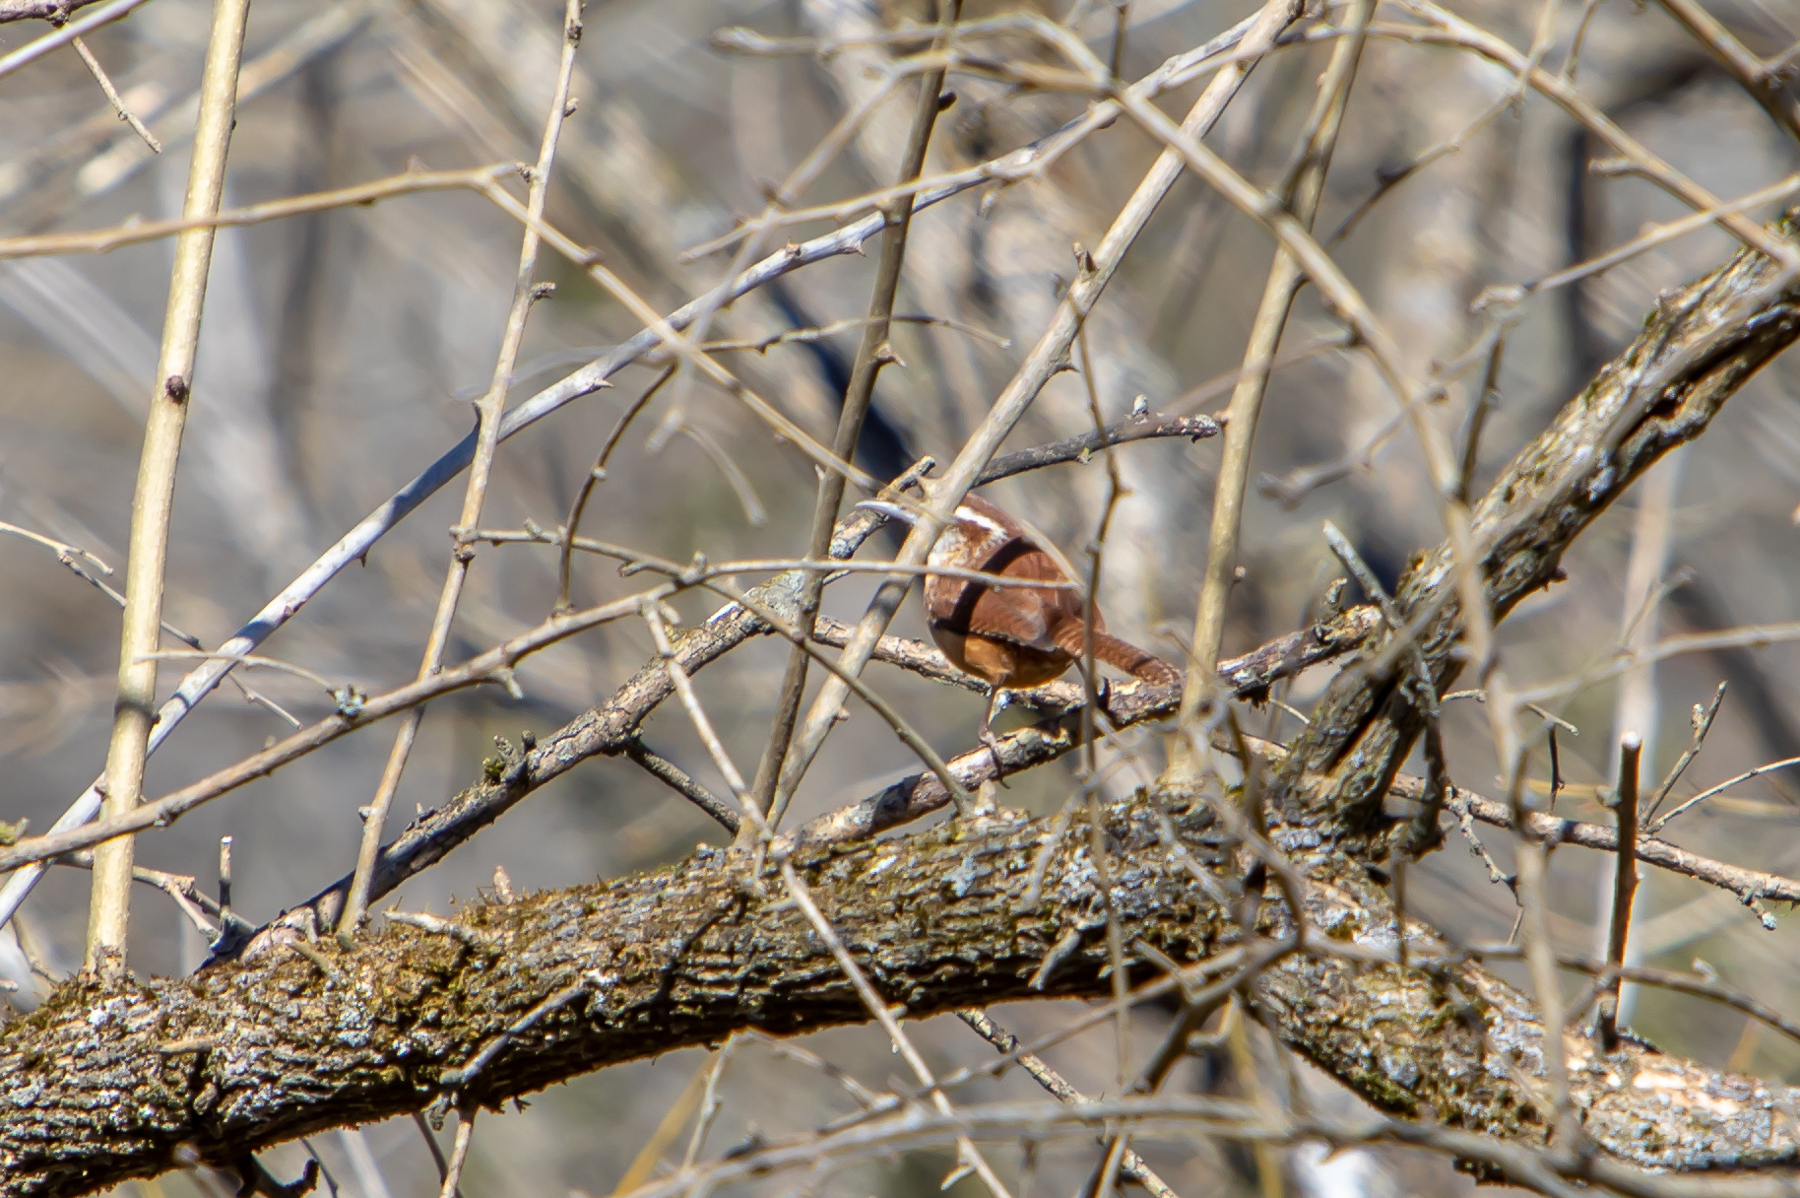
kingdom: Animalia
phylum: Chordata
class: Aves
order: Passeriformes
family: Troglodytidae
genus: Thryothorus
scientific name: Thryothorus ludovicianus
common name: Carolina wren
